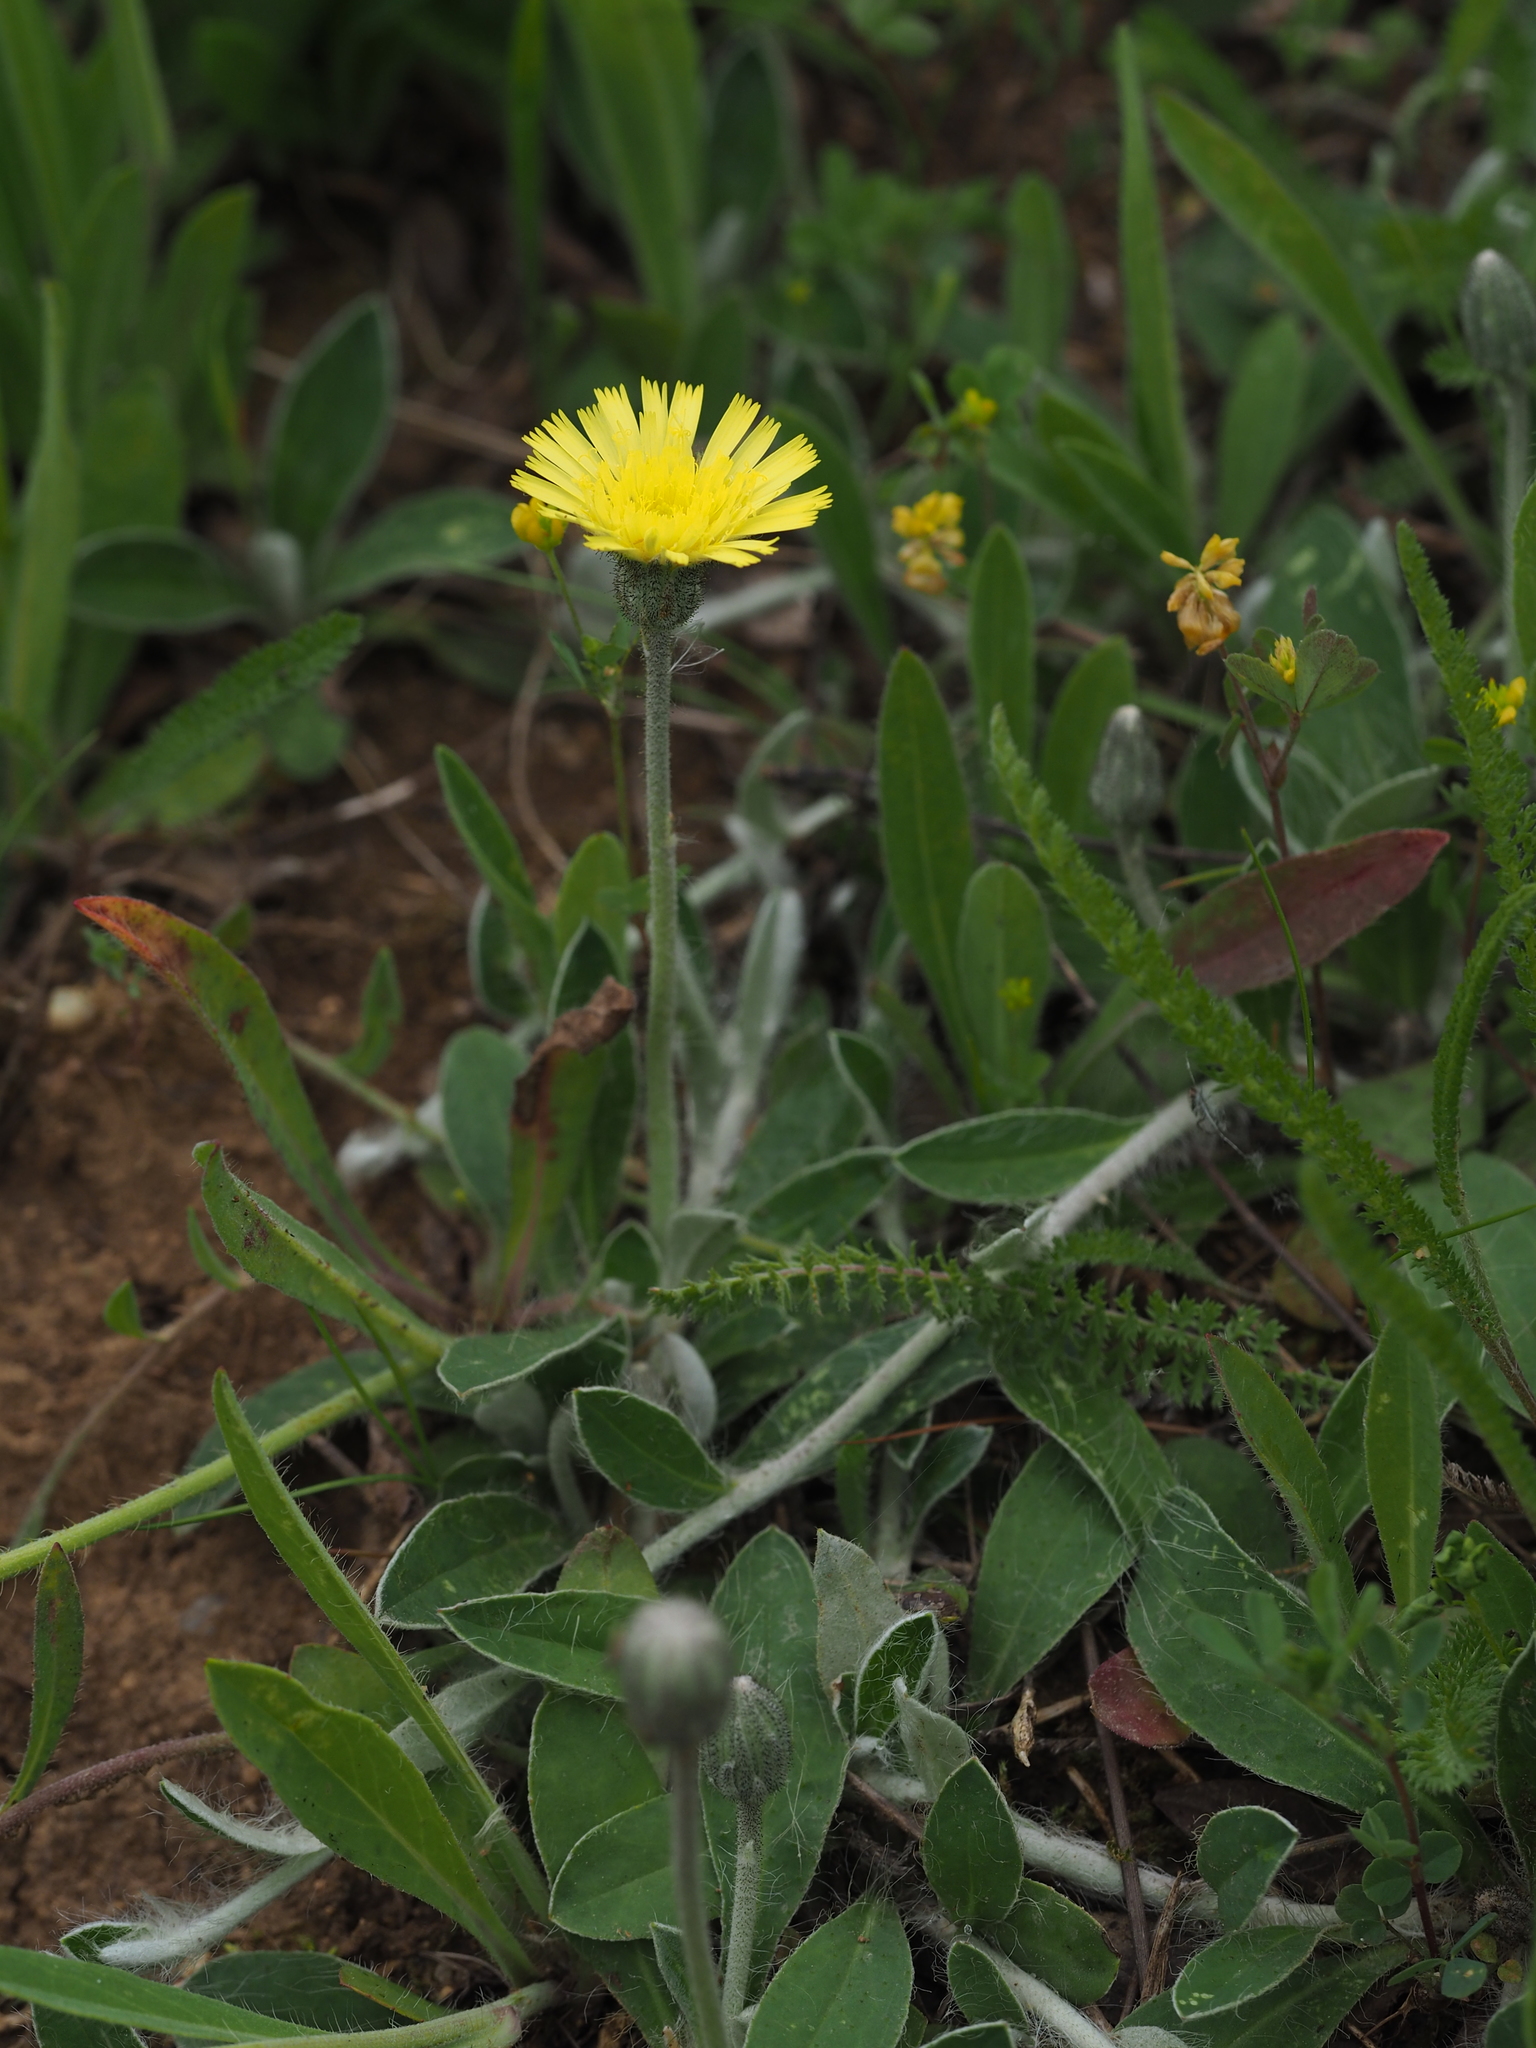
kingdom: Plantae
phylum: Tracheophyta
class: Magnoliopsida
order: Asterales
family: Asteraceae
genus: Pilosella
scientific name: Pilosella officinarum
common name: Mouse-ear hawkweed
